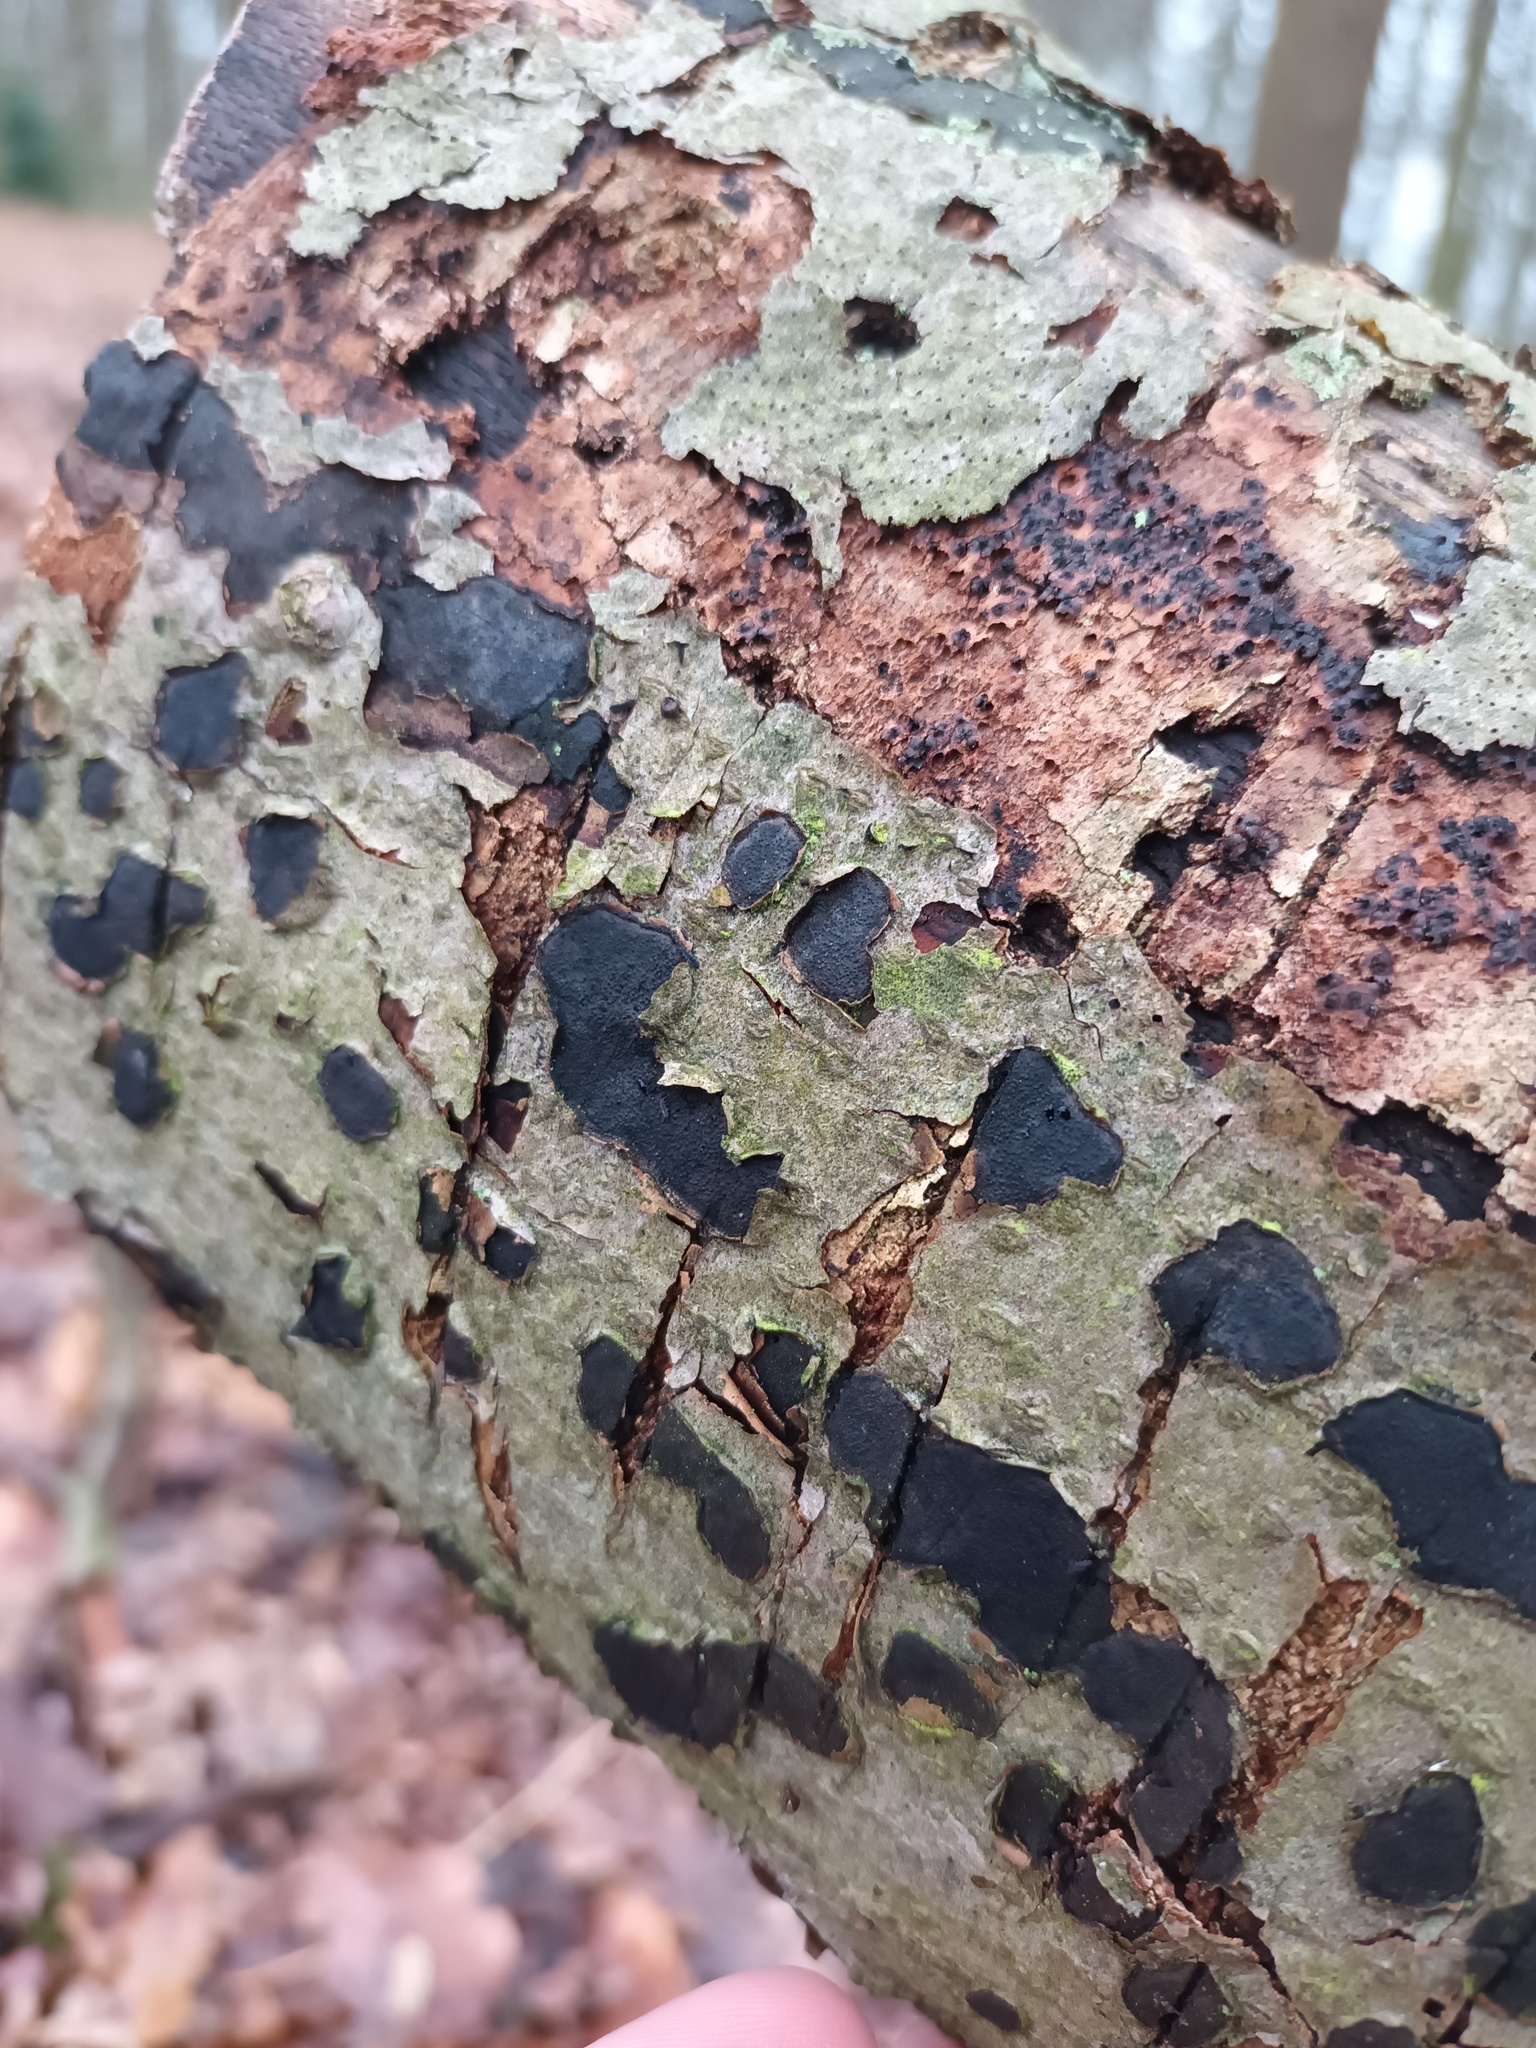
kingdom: Fungi
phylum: Ascomycota
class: Sordariomycetes
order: Xylariales
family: Graphostromataceae
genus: Biscogniauxia
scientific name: Biscogniauxia nummularia
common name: Beech tarcrust
